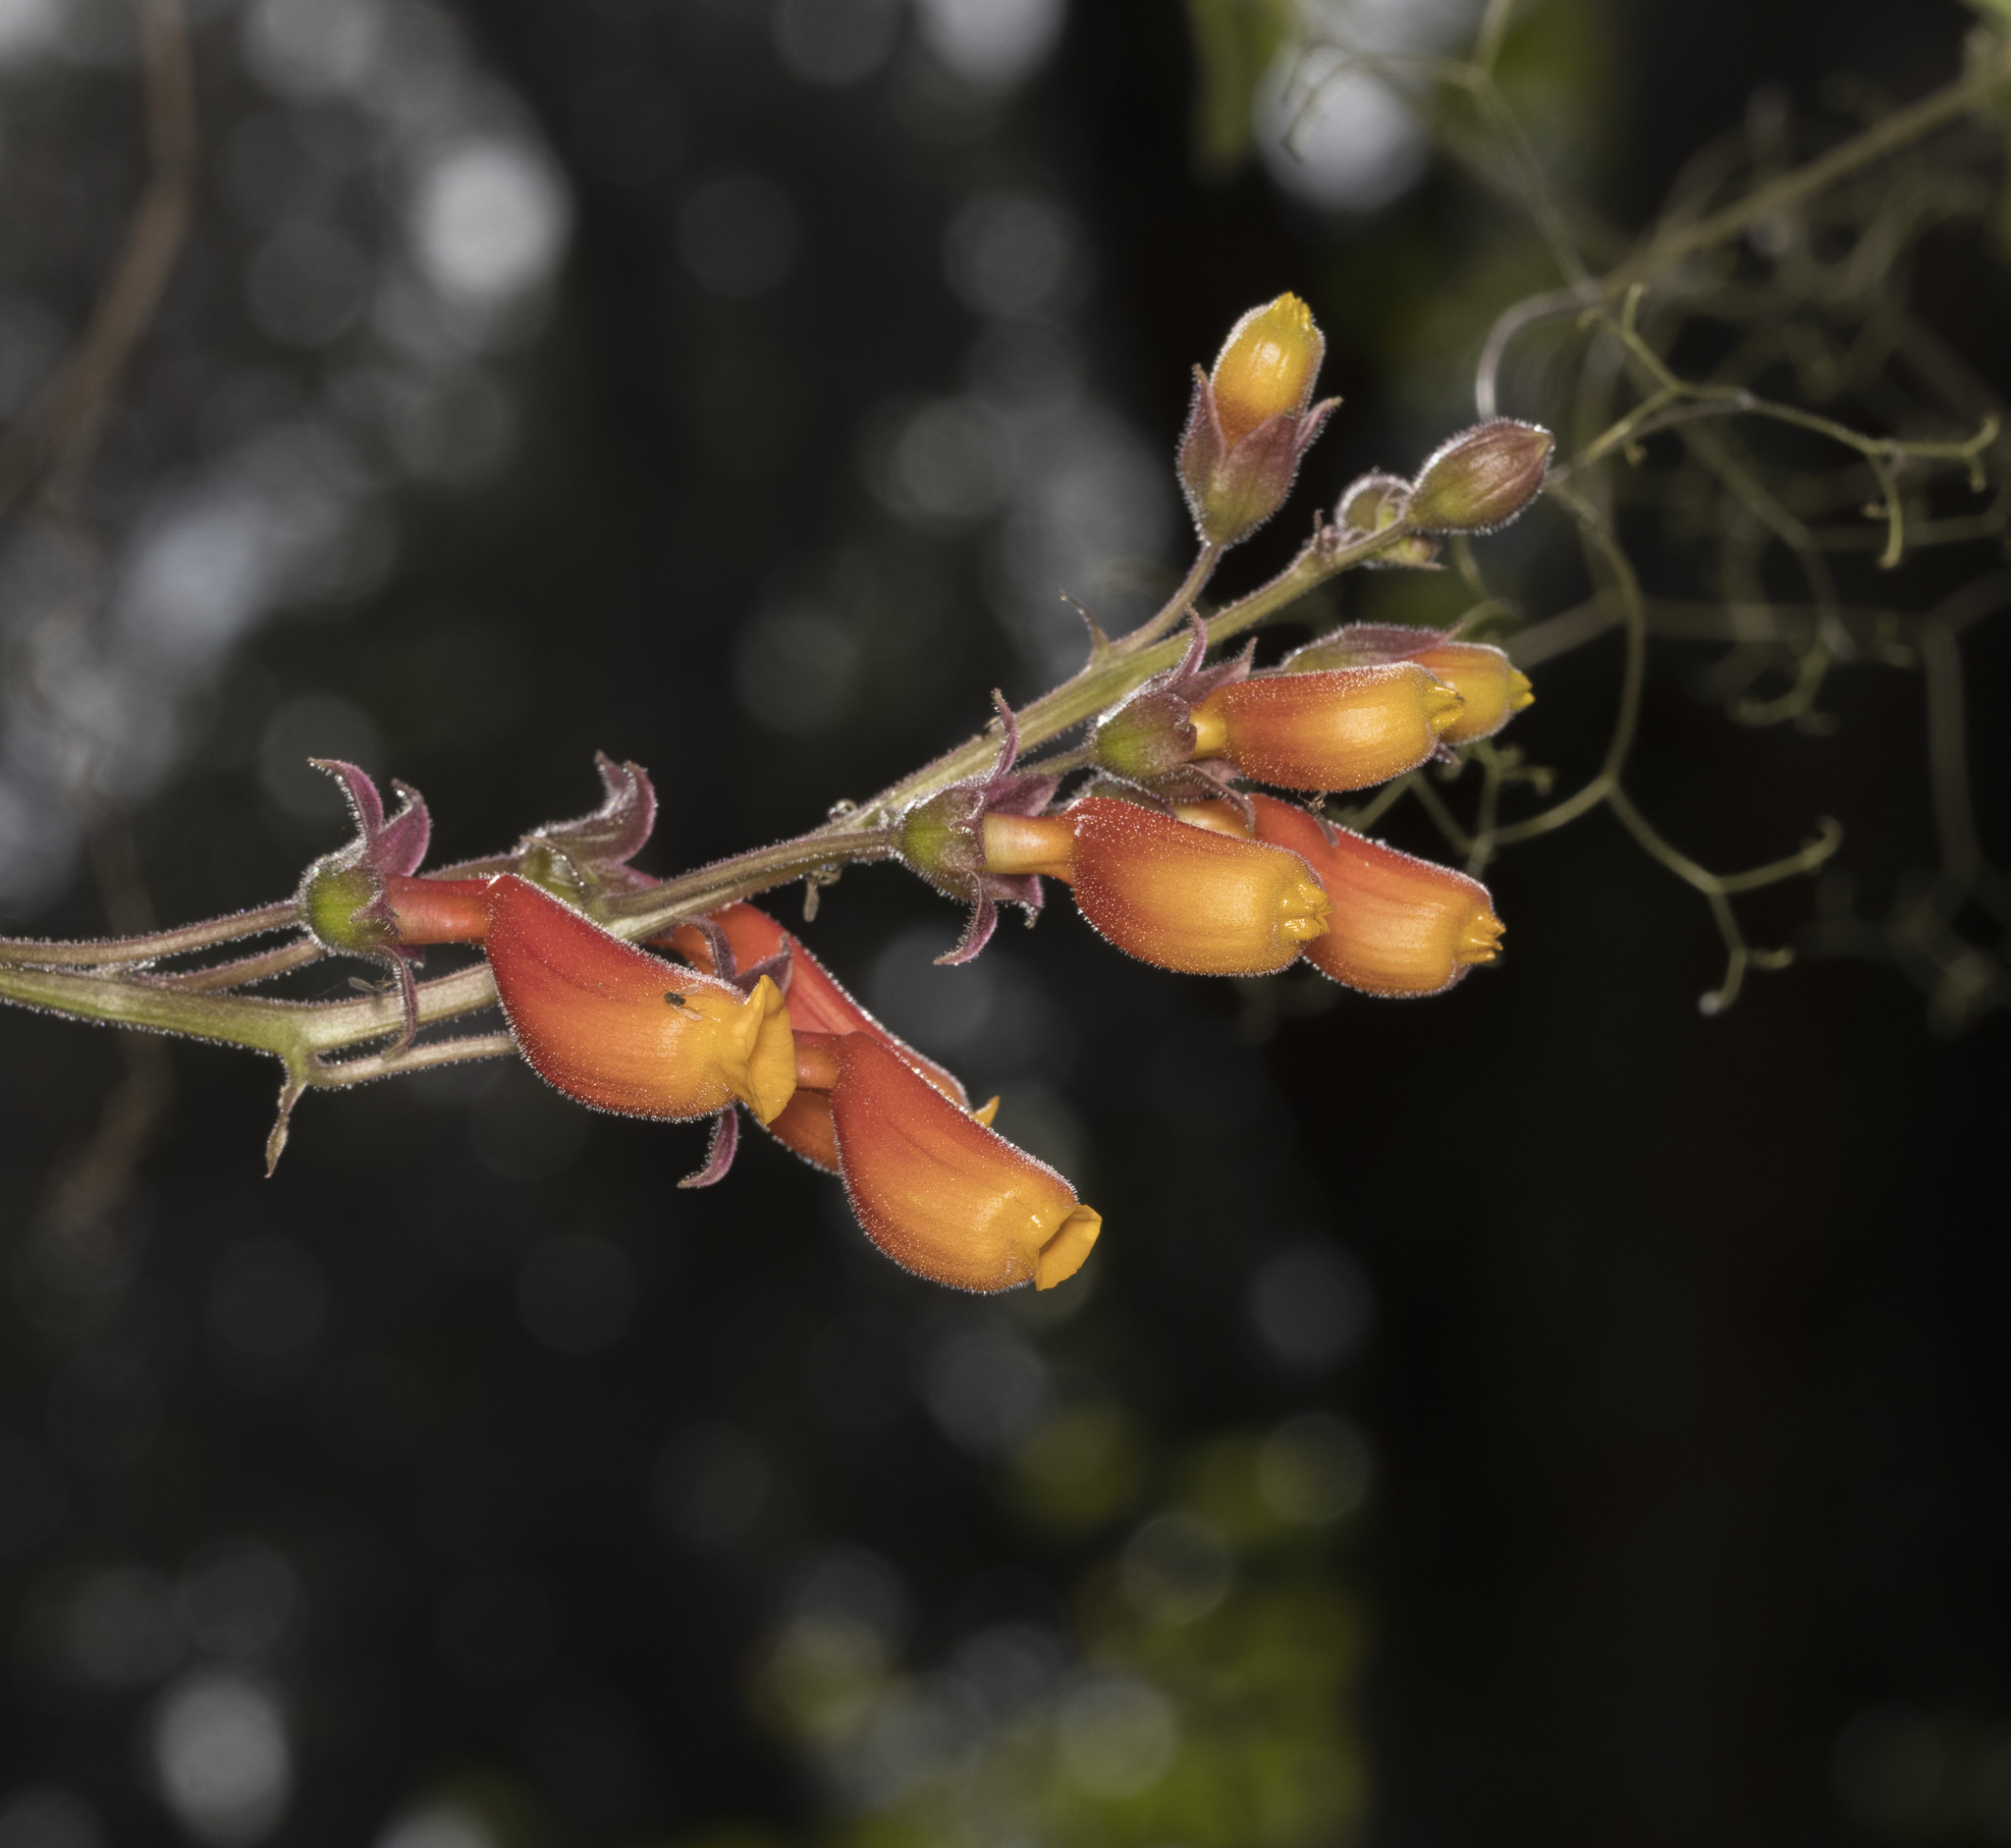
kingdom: Plantae
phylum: Tracheophyta
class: Magnoliopsida
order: Lamiales
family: Bignoniaceae
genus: Eccremocarpus
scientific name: Eccremocarpus scaber
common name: Chilean glory-flower
